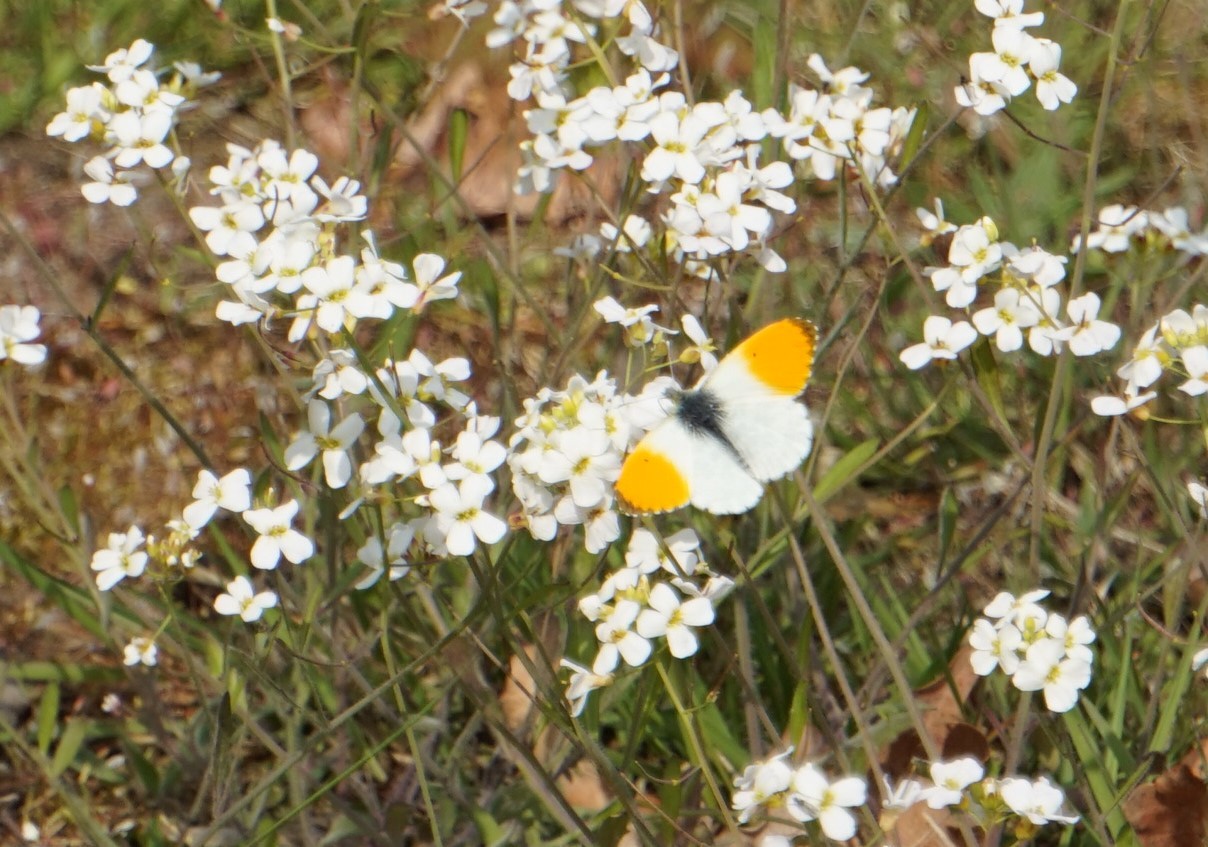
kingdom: Animalia
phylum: Arthropoda
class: Insecta
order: Lepidoptera
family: Pieridae
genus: Anthocharis
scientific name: Anthocharis cardamines
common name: Orange-tip
